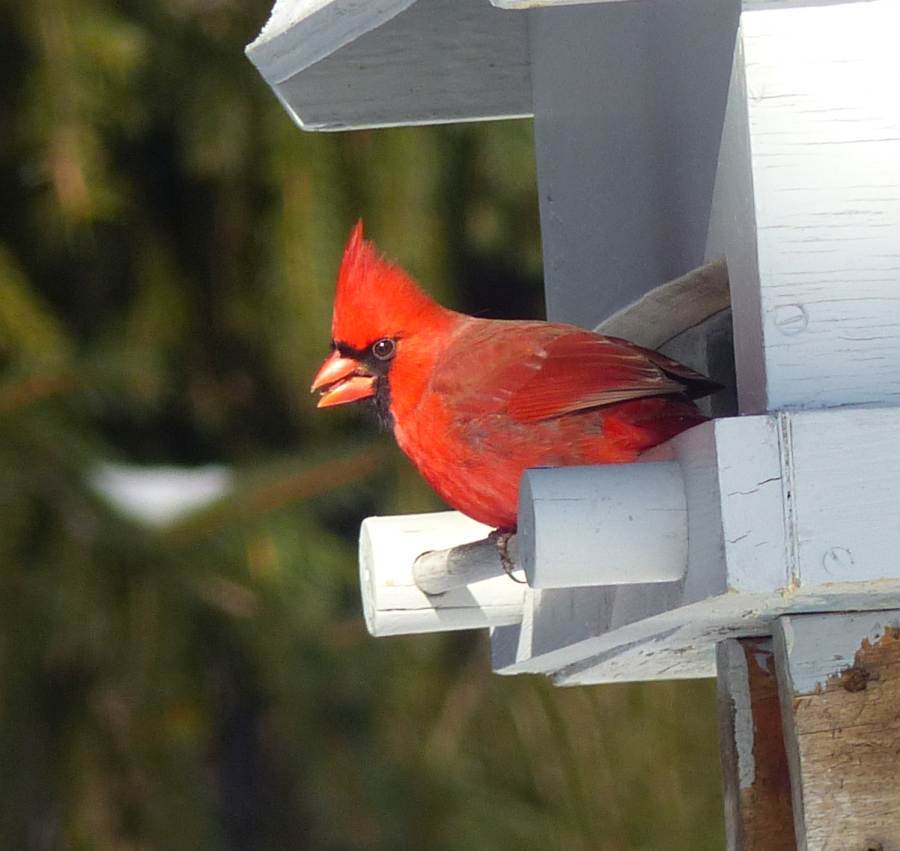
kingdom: Animalia
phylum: Chordata
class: Aves
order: Passeriformes
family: Cardinalidae
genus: Cardinalis
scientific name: Cardinalis cardinalis
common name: Northern cardinal
